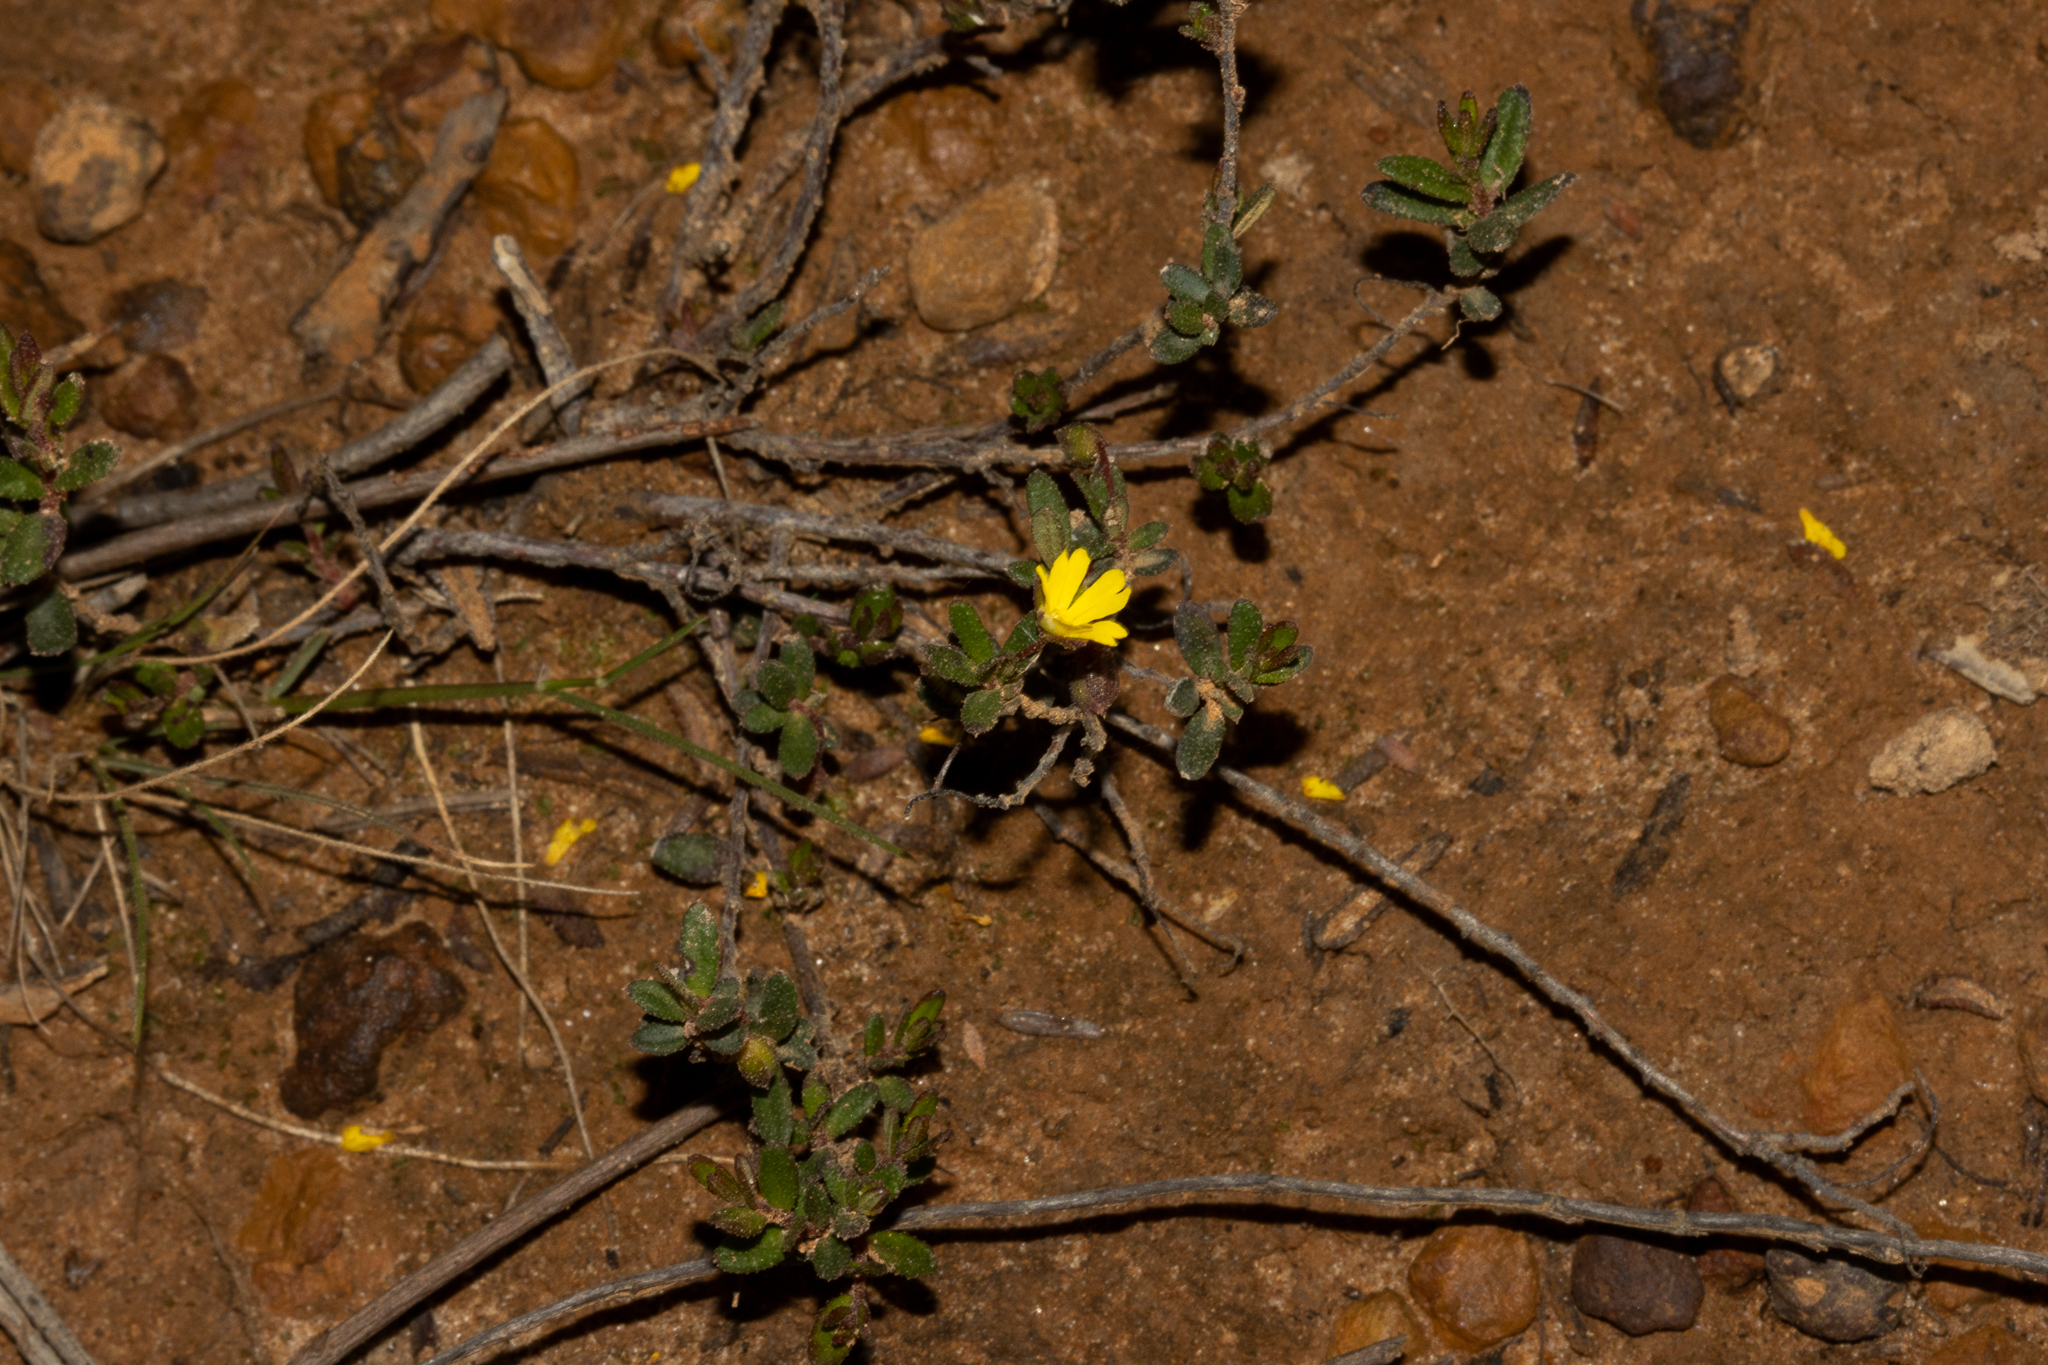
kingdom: Plantae
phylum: Tracheophyta
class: Magnoliopsida
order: Dilleniales
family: Dilleniaceae
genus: Hibbertia
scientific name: Hibbertia
